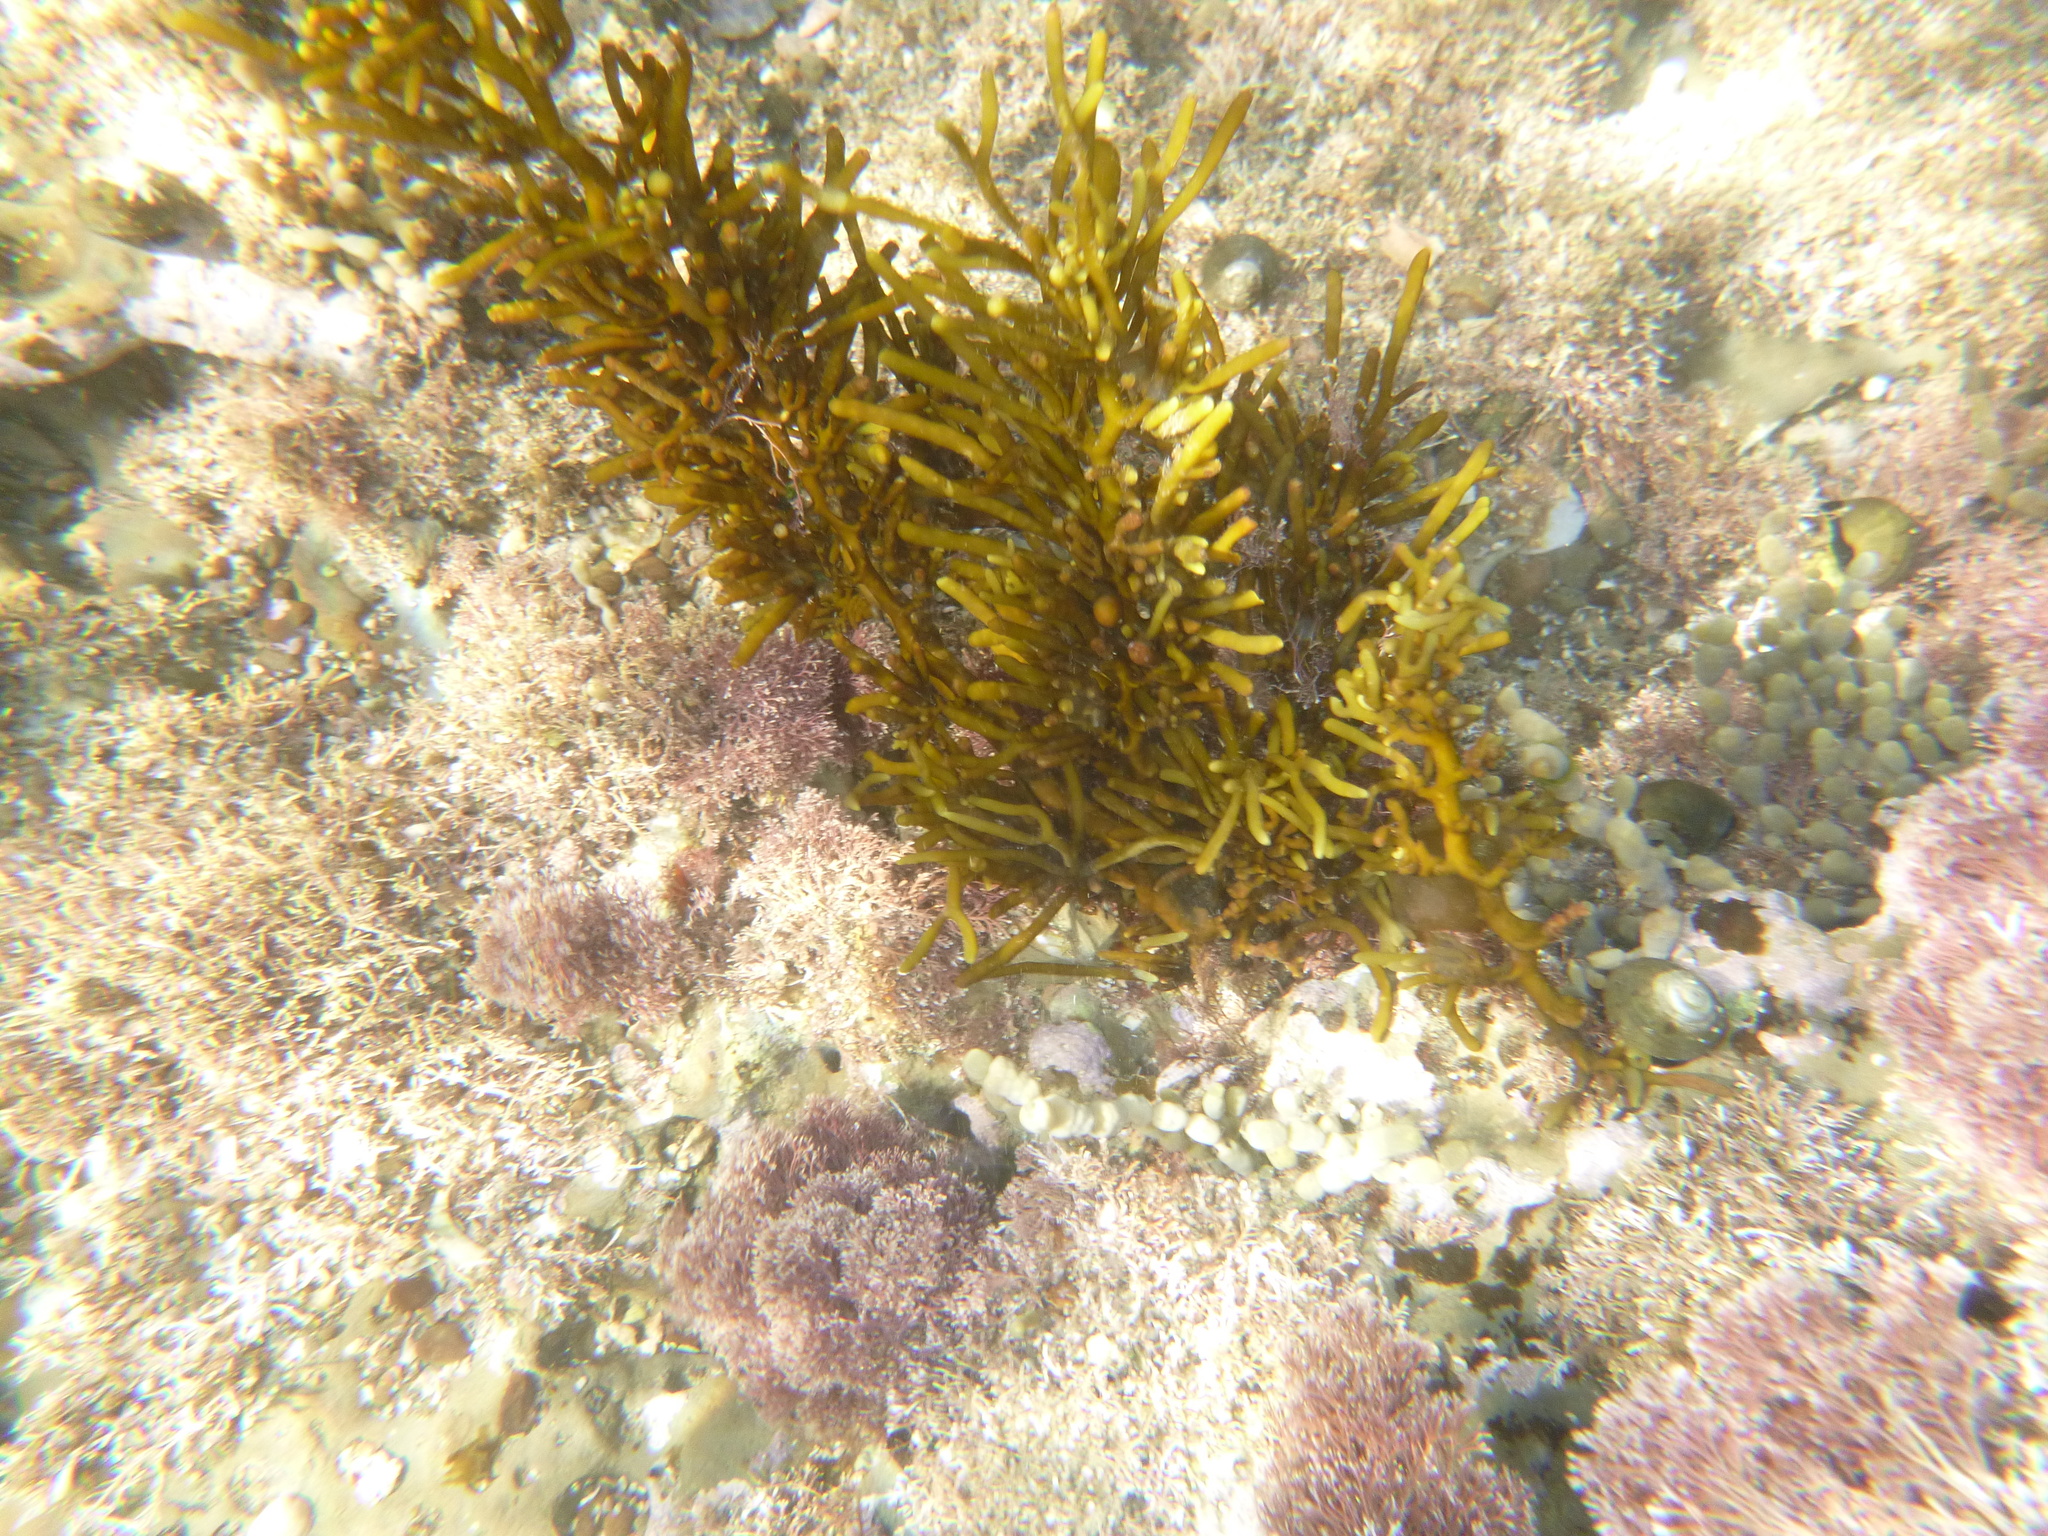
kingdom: Chromista
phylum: Ochrophyta
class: Phaeophyceae
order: Fucales
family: Sargassaceae
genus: Cystophora
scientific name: Cystophora torulosa
